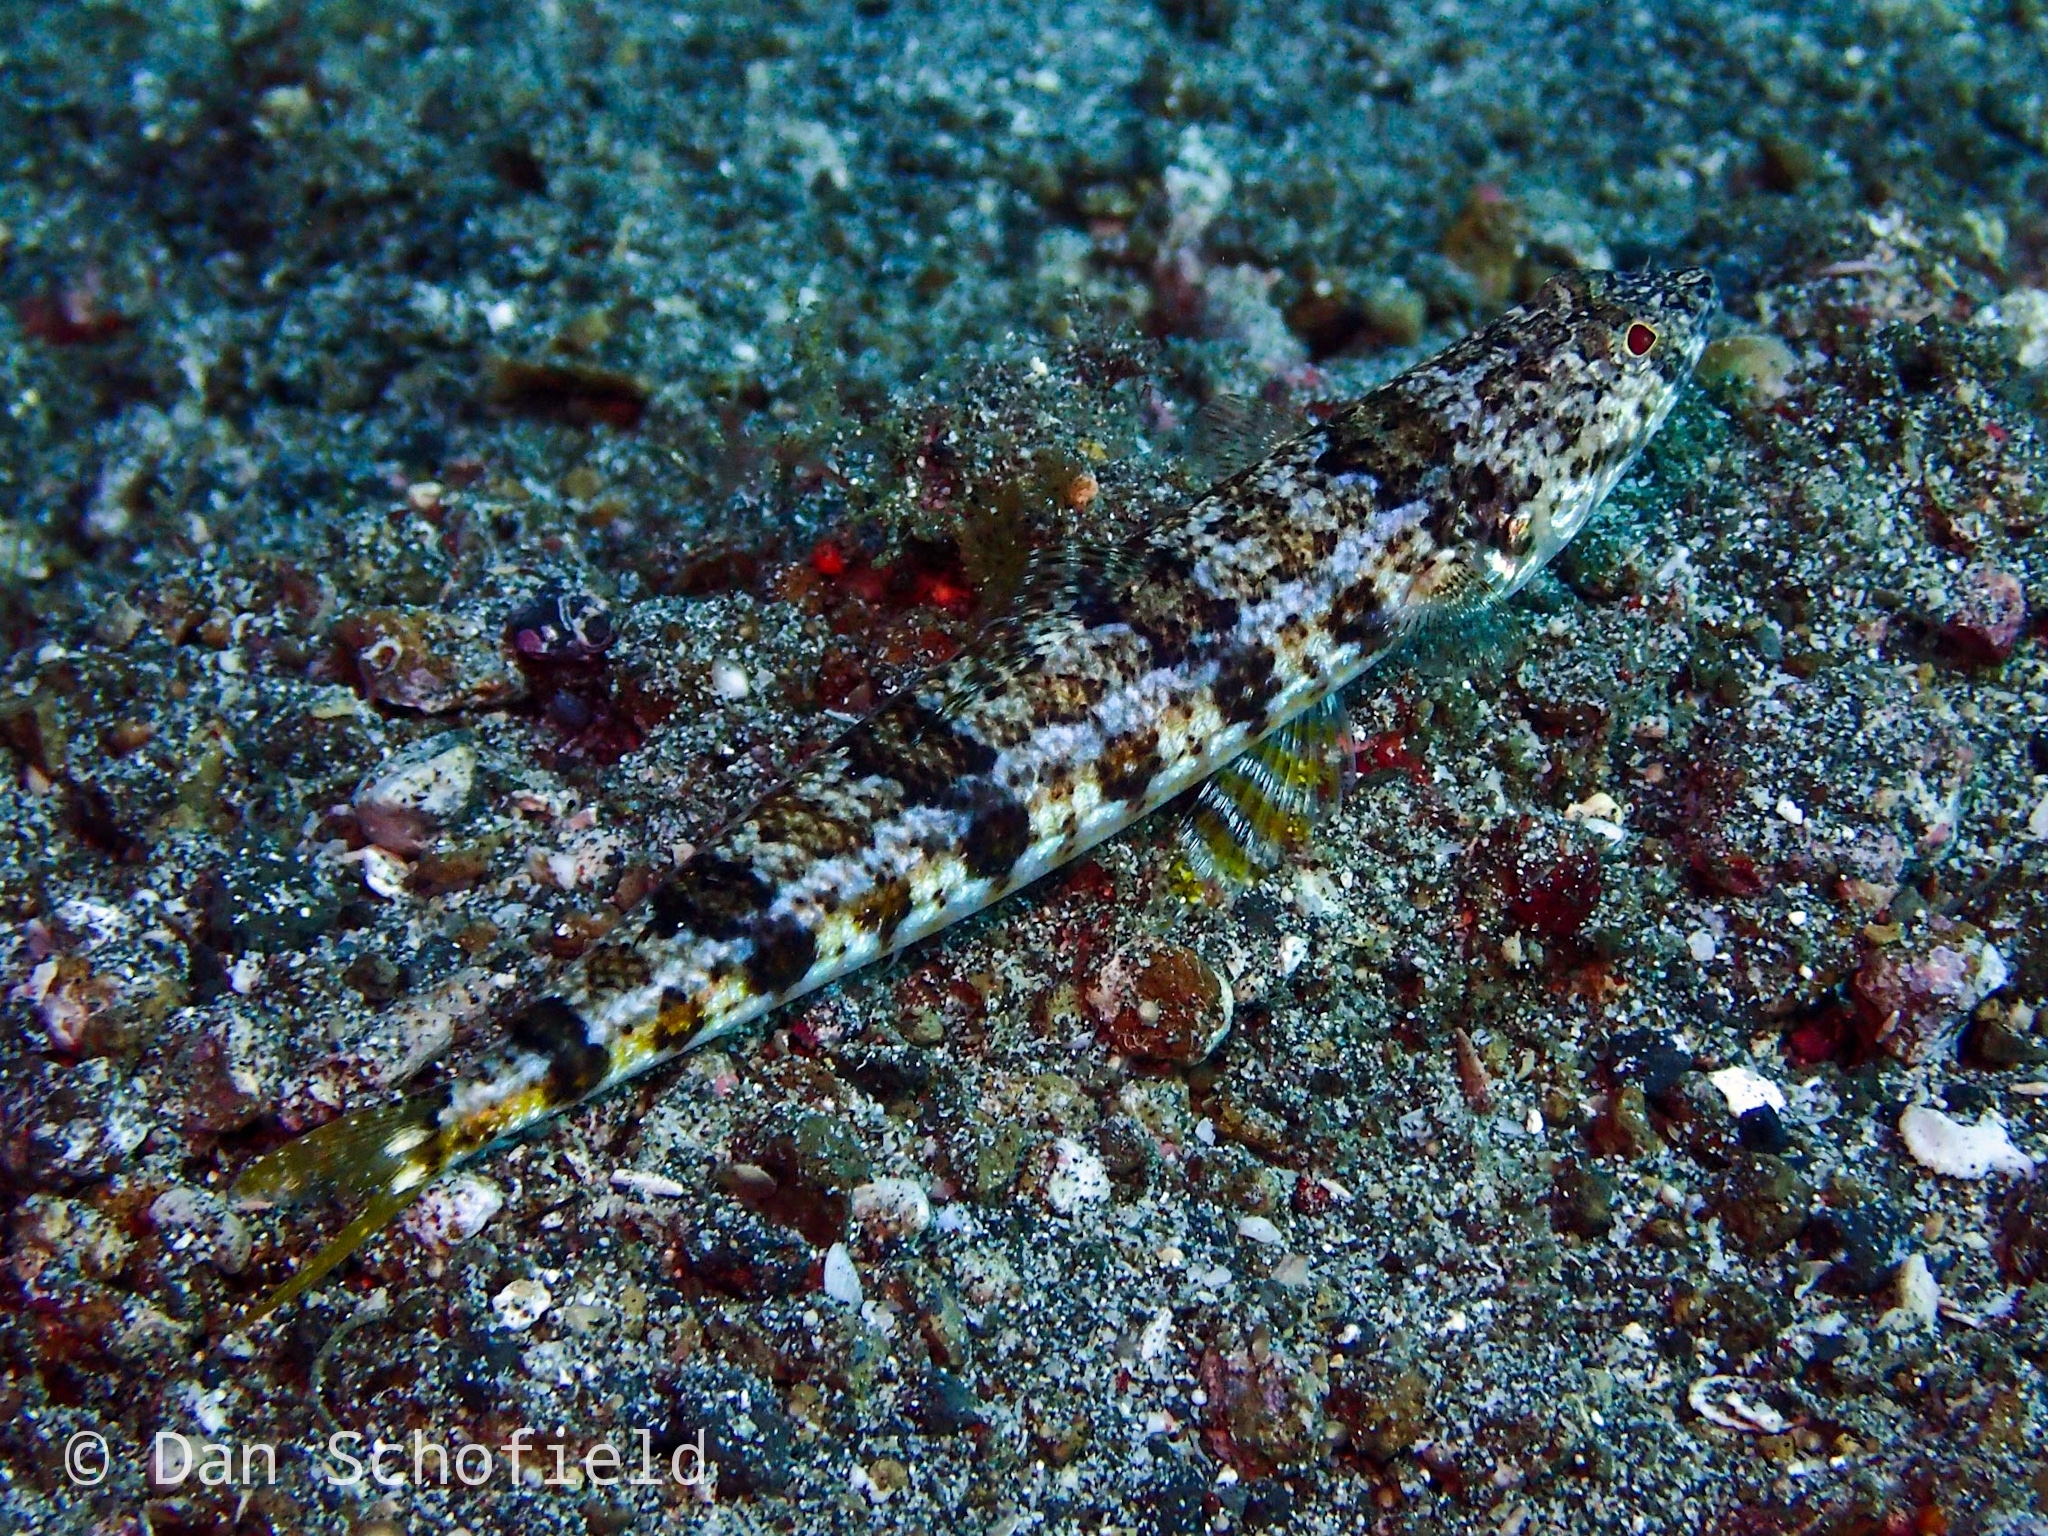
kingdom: Animalia
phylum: Chordata
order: Aulopiformes
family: Synodontidae
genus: Synodus
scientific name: Synodus dermatogenys
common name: Banded lizardfish
